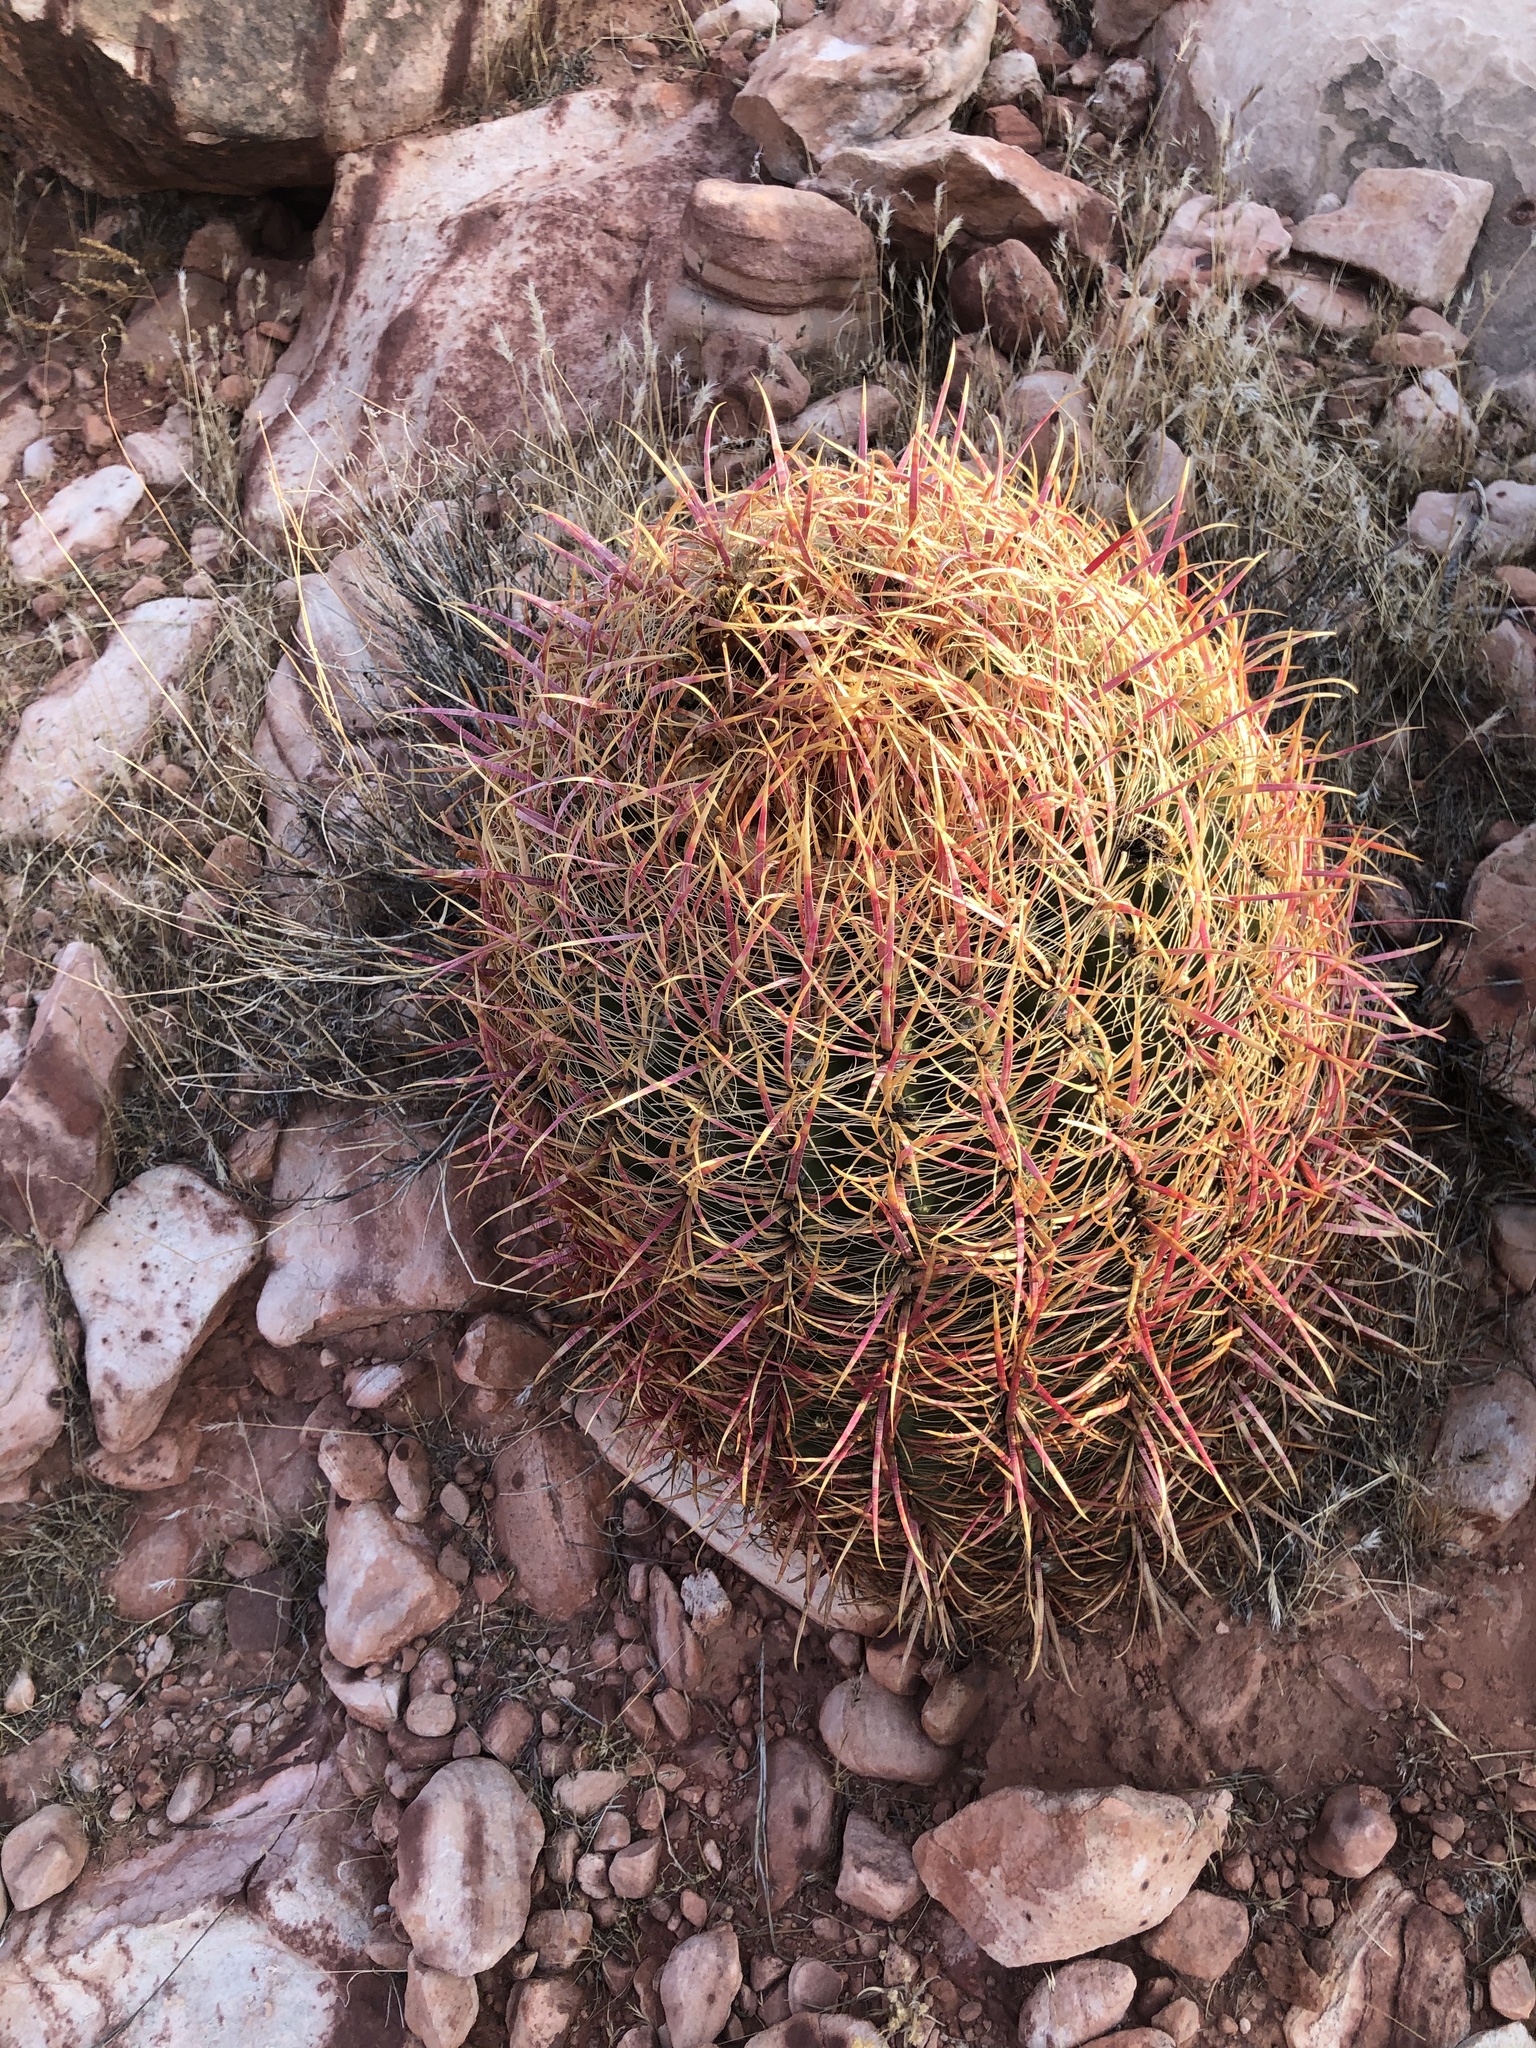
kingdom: Plantae
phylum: Tracheophyta
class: Magnoliopsida
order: Caryophyllales
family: Cactaceae
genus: Ferocactus
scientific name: Ferocactus cylindraceus
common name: California barrel cactus
